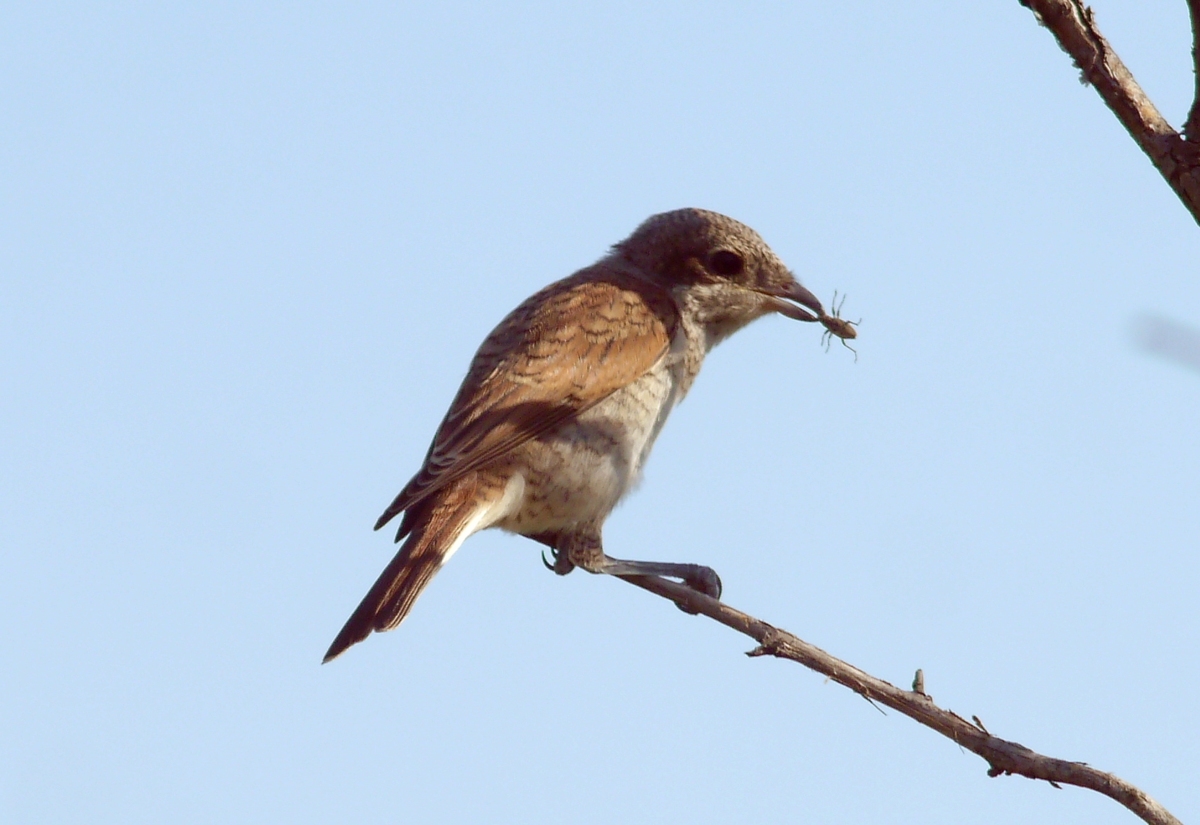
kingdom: Animalia
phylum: Chordata
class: Aves
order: Passeriformes
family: Laniidae
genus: Lanius
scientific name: Lanius collurio
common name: Red-backed shrike
